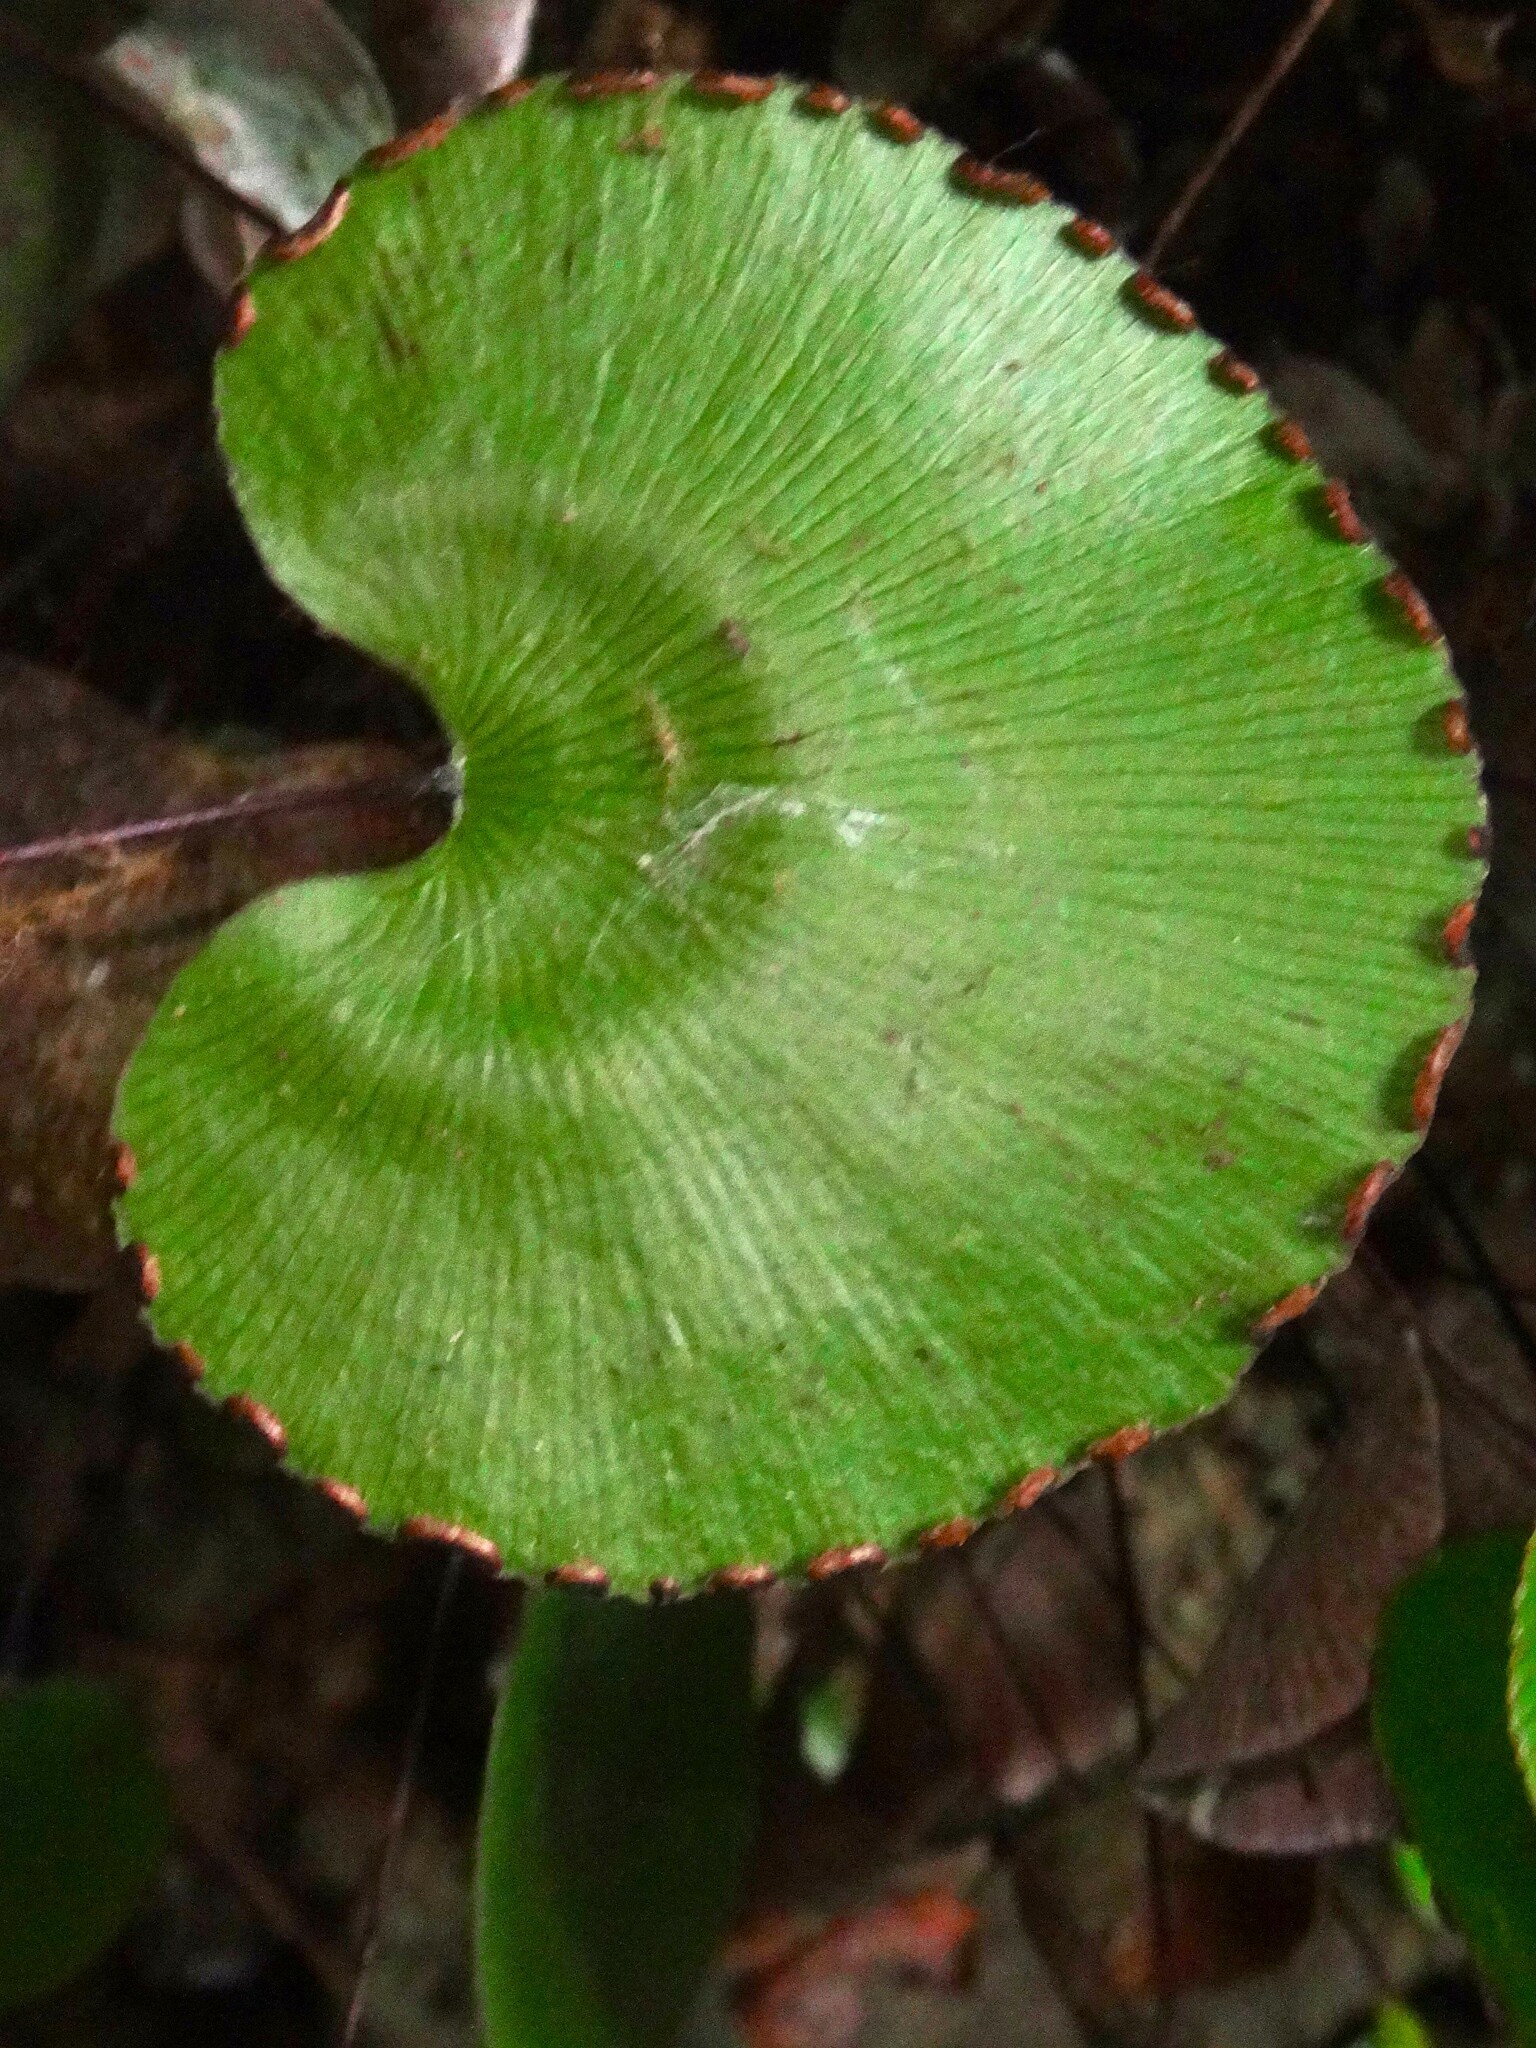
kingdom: Plantae
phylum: Tracheophyta
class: Polypodiopsida
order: Polypodiales
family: Pteridaceae
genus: Adiantum
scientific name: Adiantum reniforme
